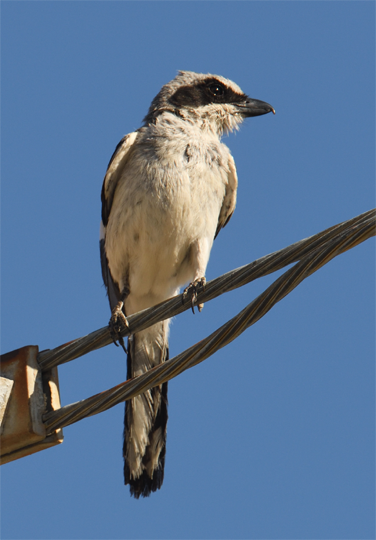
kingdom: Animalia
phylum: Chordata
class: Aves
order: Passeriformes
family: Laniidae
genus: Lanius
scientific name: Lanius ludovicianus
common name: Loggerhead shrike
